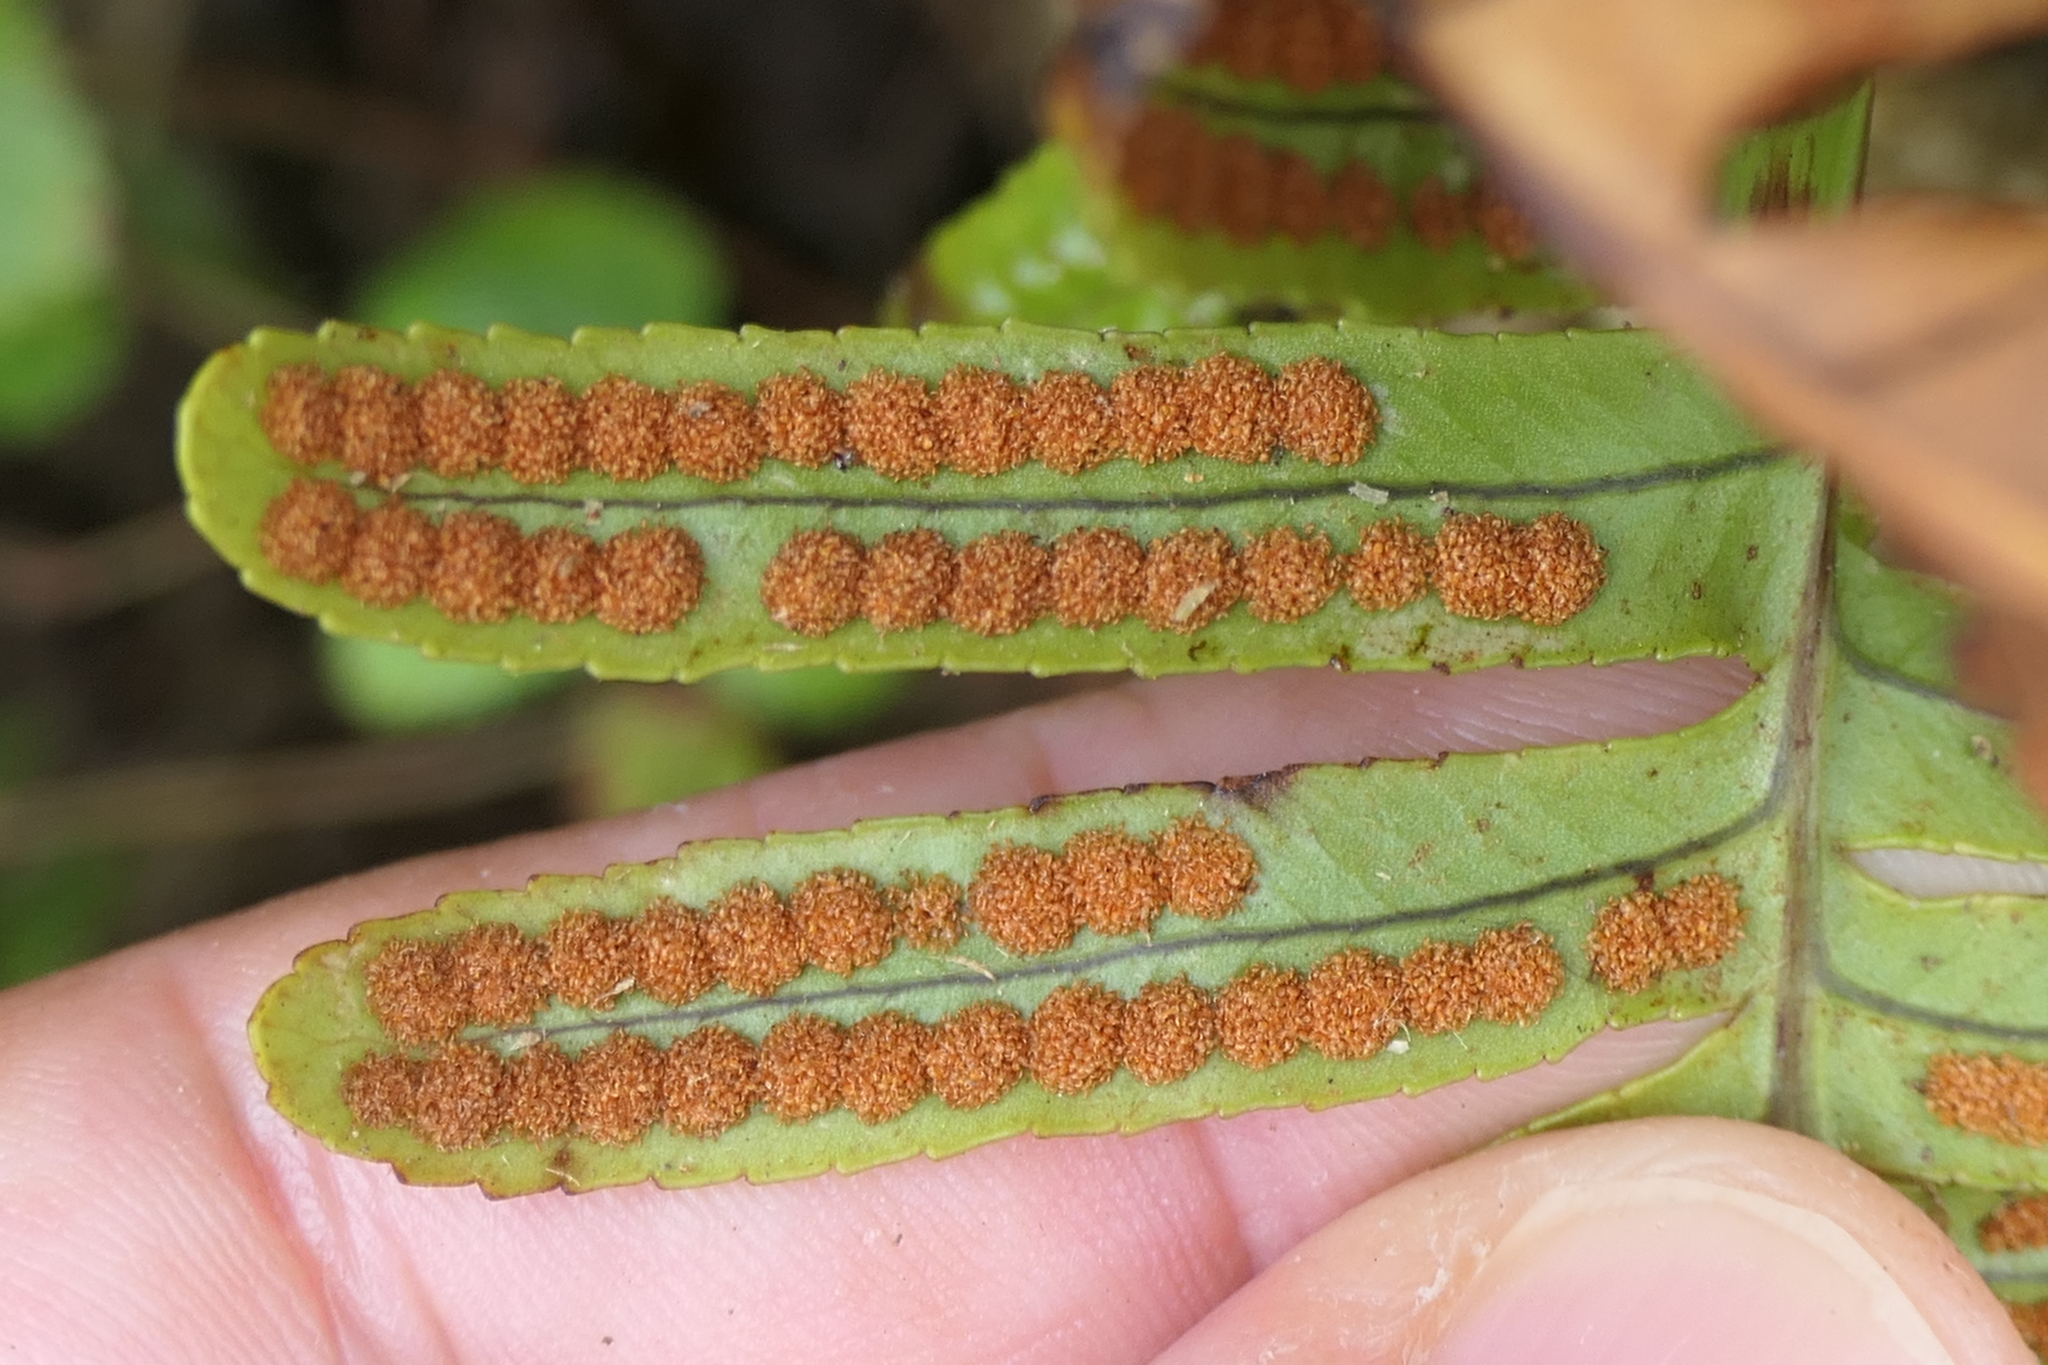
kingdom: Plantae
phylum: Tracheophyta
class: Polypodiopsida
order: Polypodiales
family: Polypodiaceae
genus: Polypodium
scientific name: Polypodium macaronesicum
